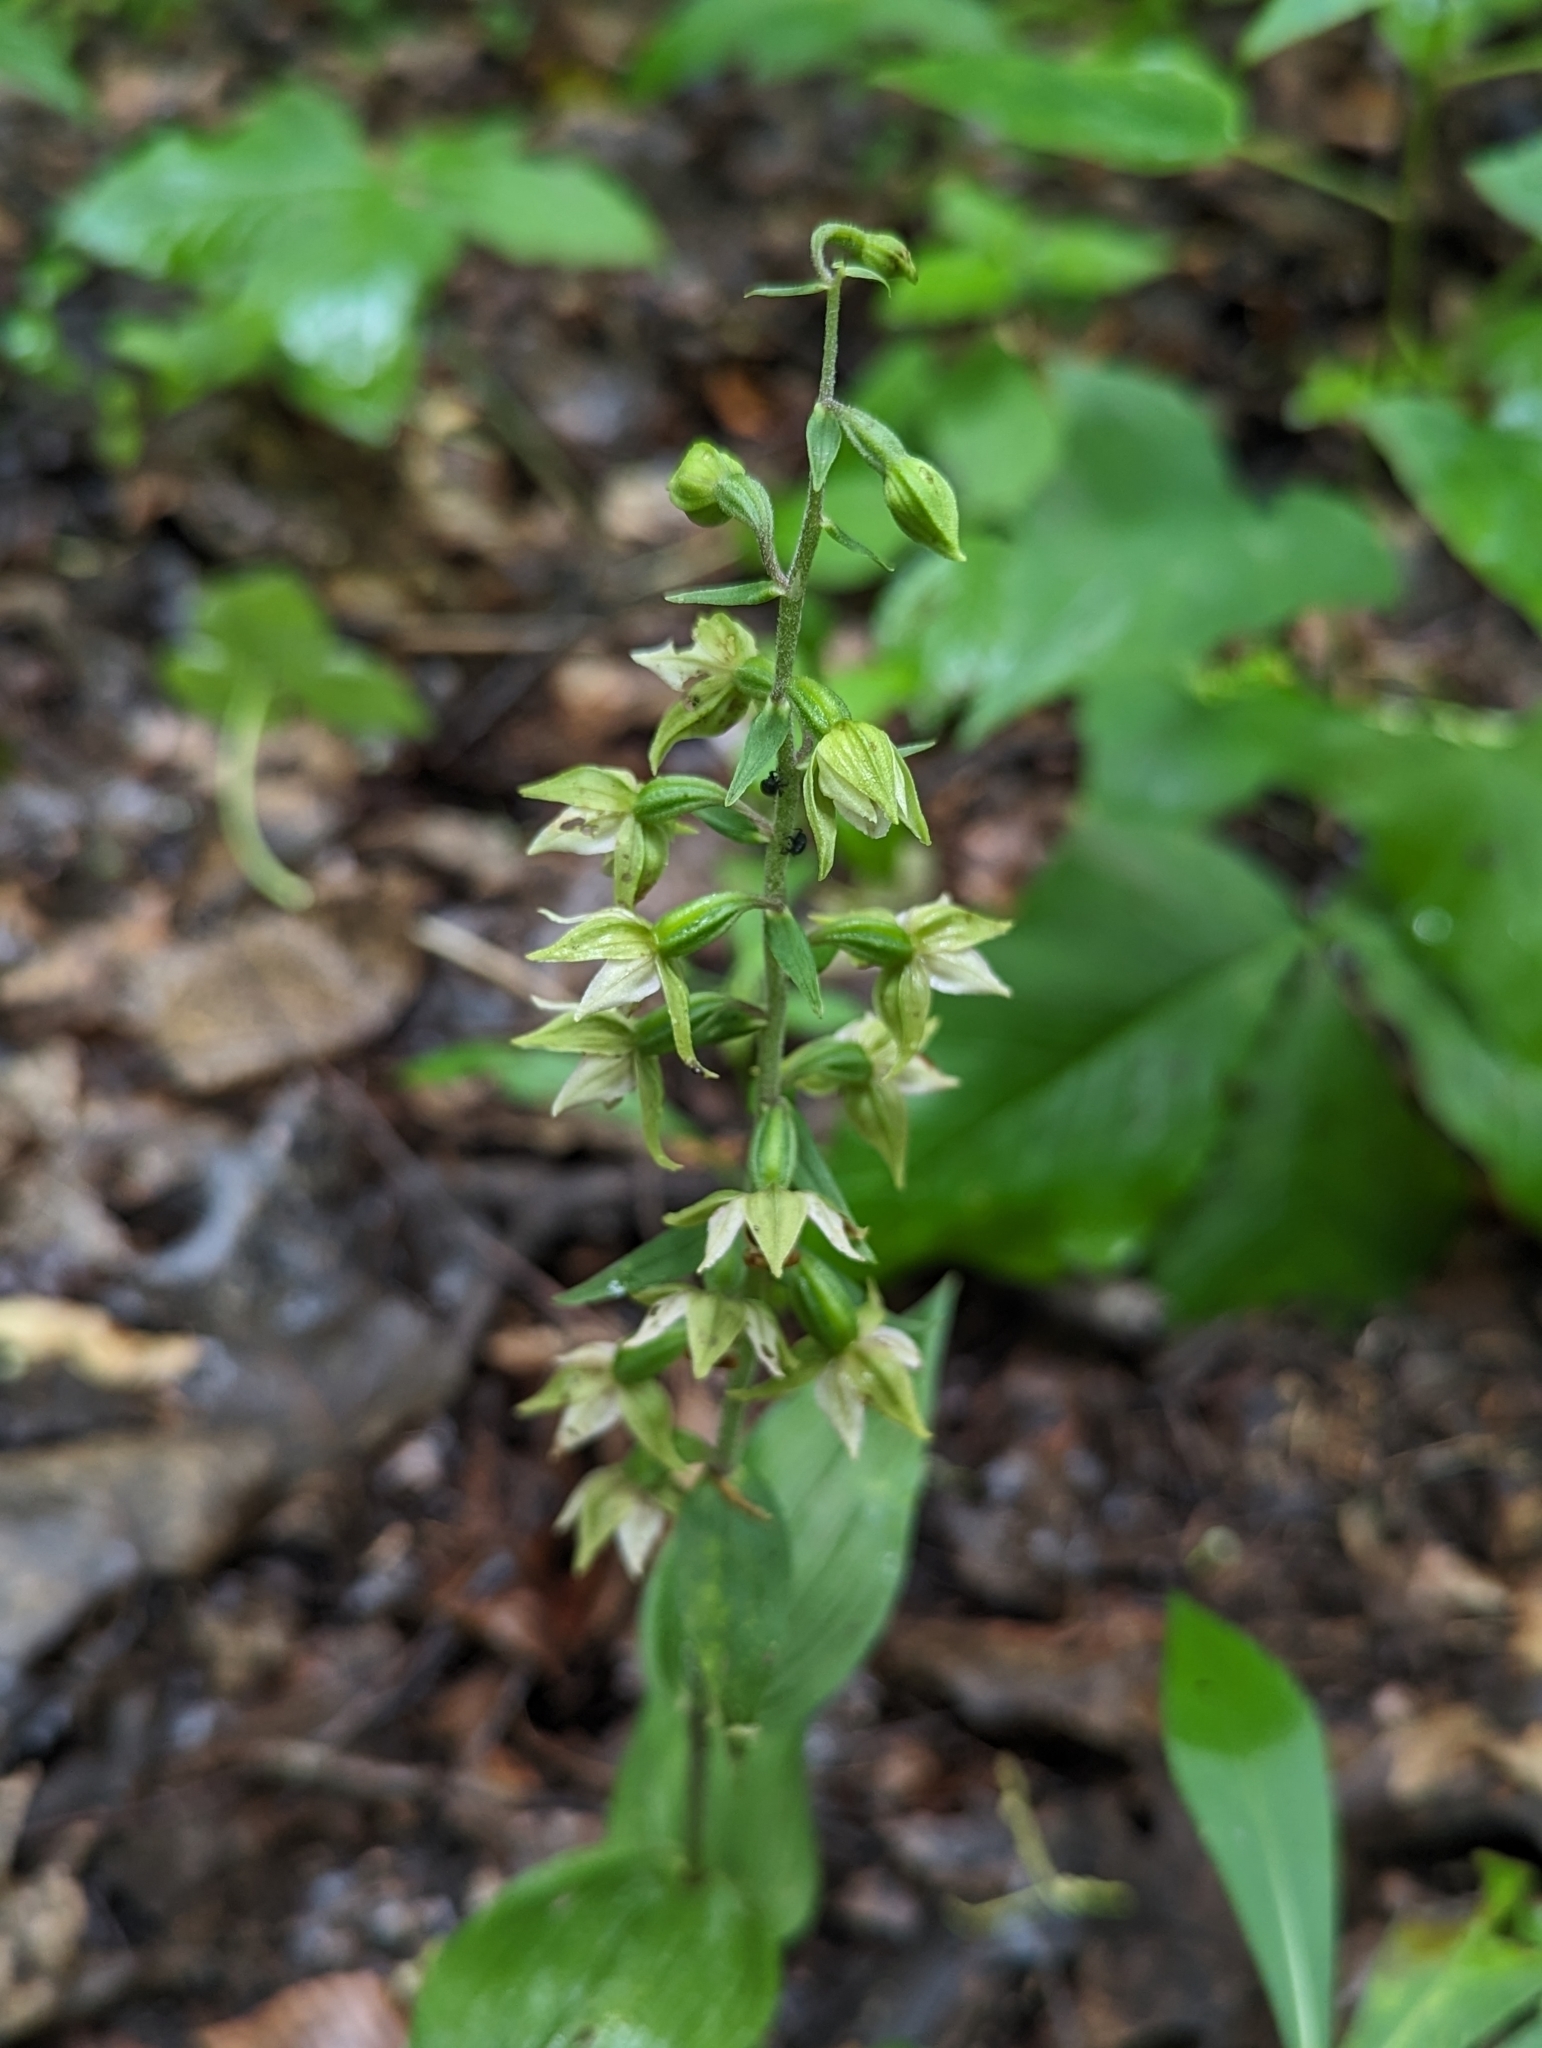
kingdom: Plantae
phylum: Tracheophyta
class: Liliopsida
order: Asparagales
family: Orchidaceae
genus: Epipactis
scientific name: Epipactis helleborine
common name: Broad-leaved helleborine
